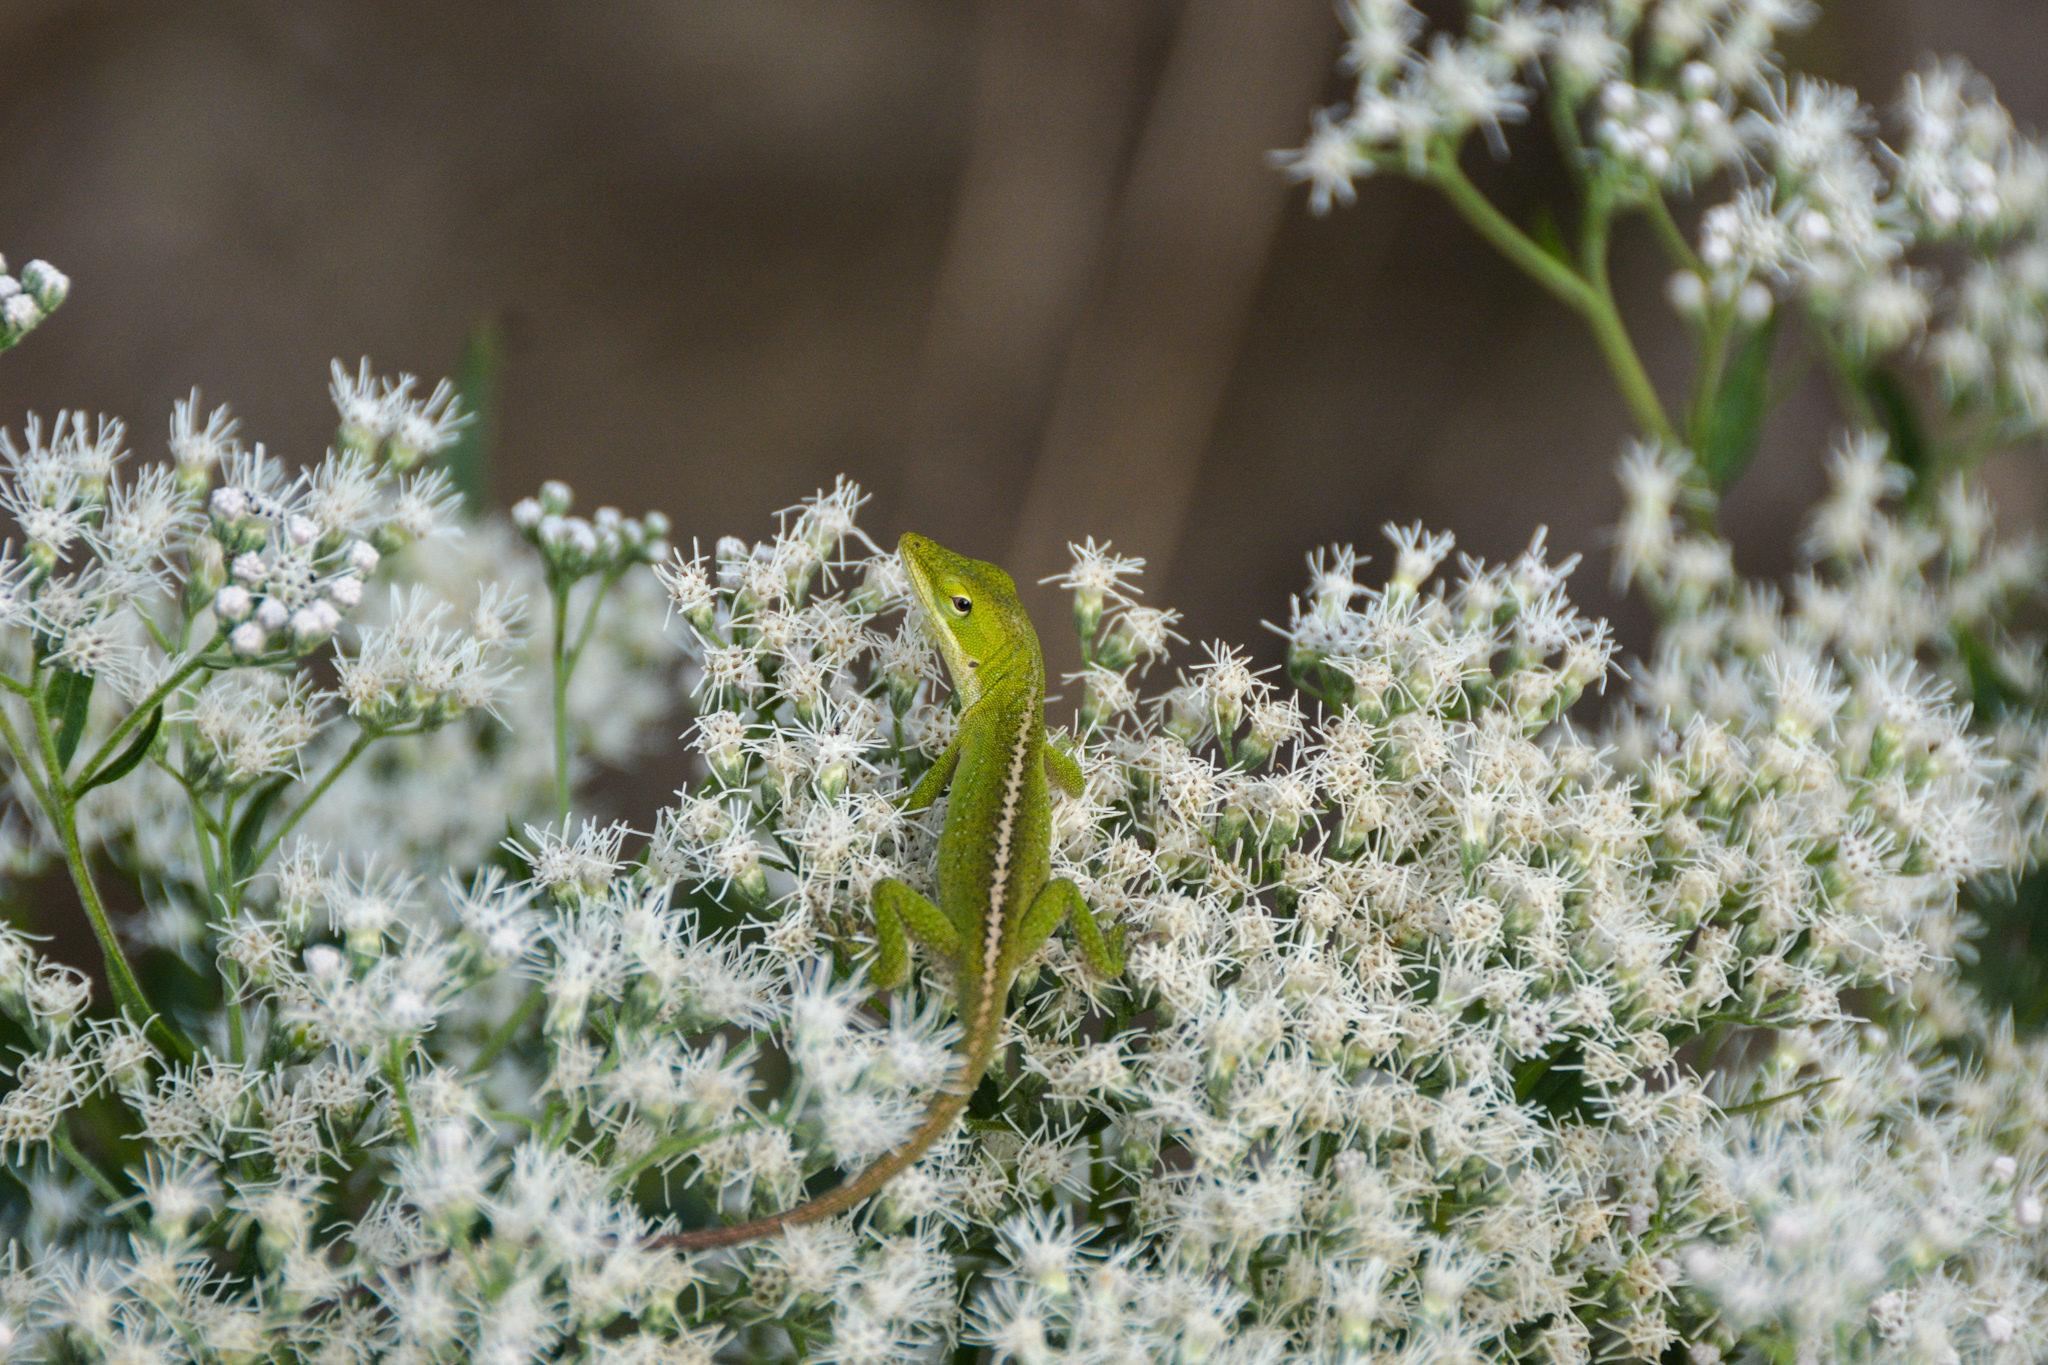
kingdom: Animalia
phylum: Chordata
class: Squamata
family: Dactyloidae
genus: Anolis
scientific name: Anolis carolinensis
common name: Green anole
